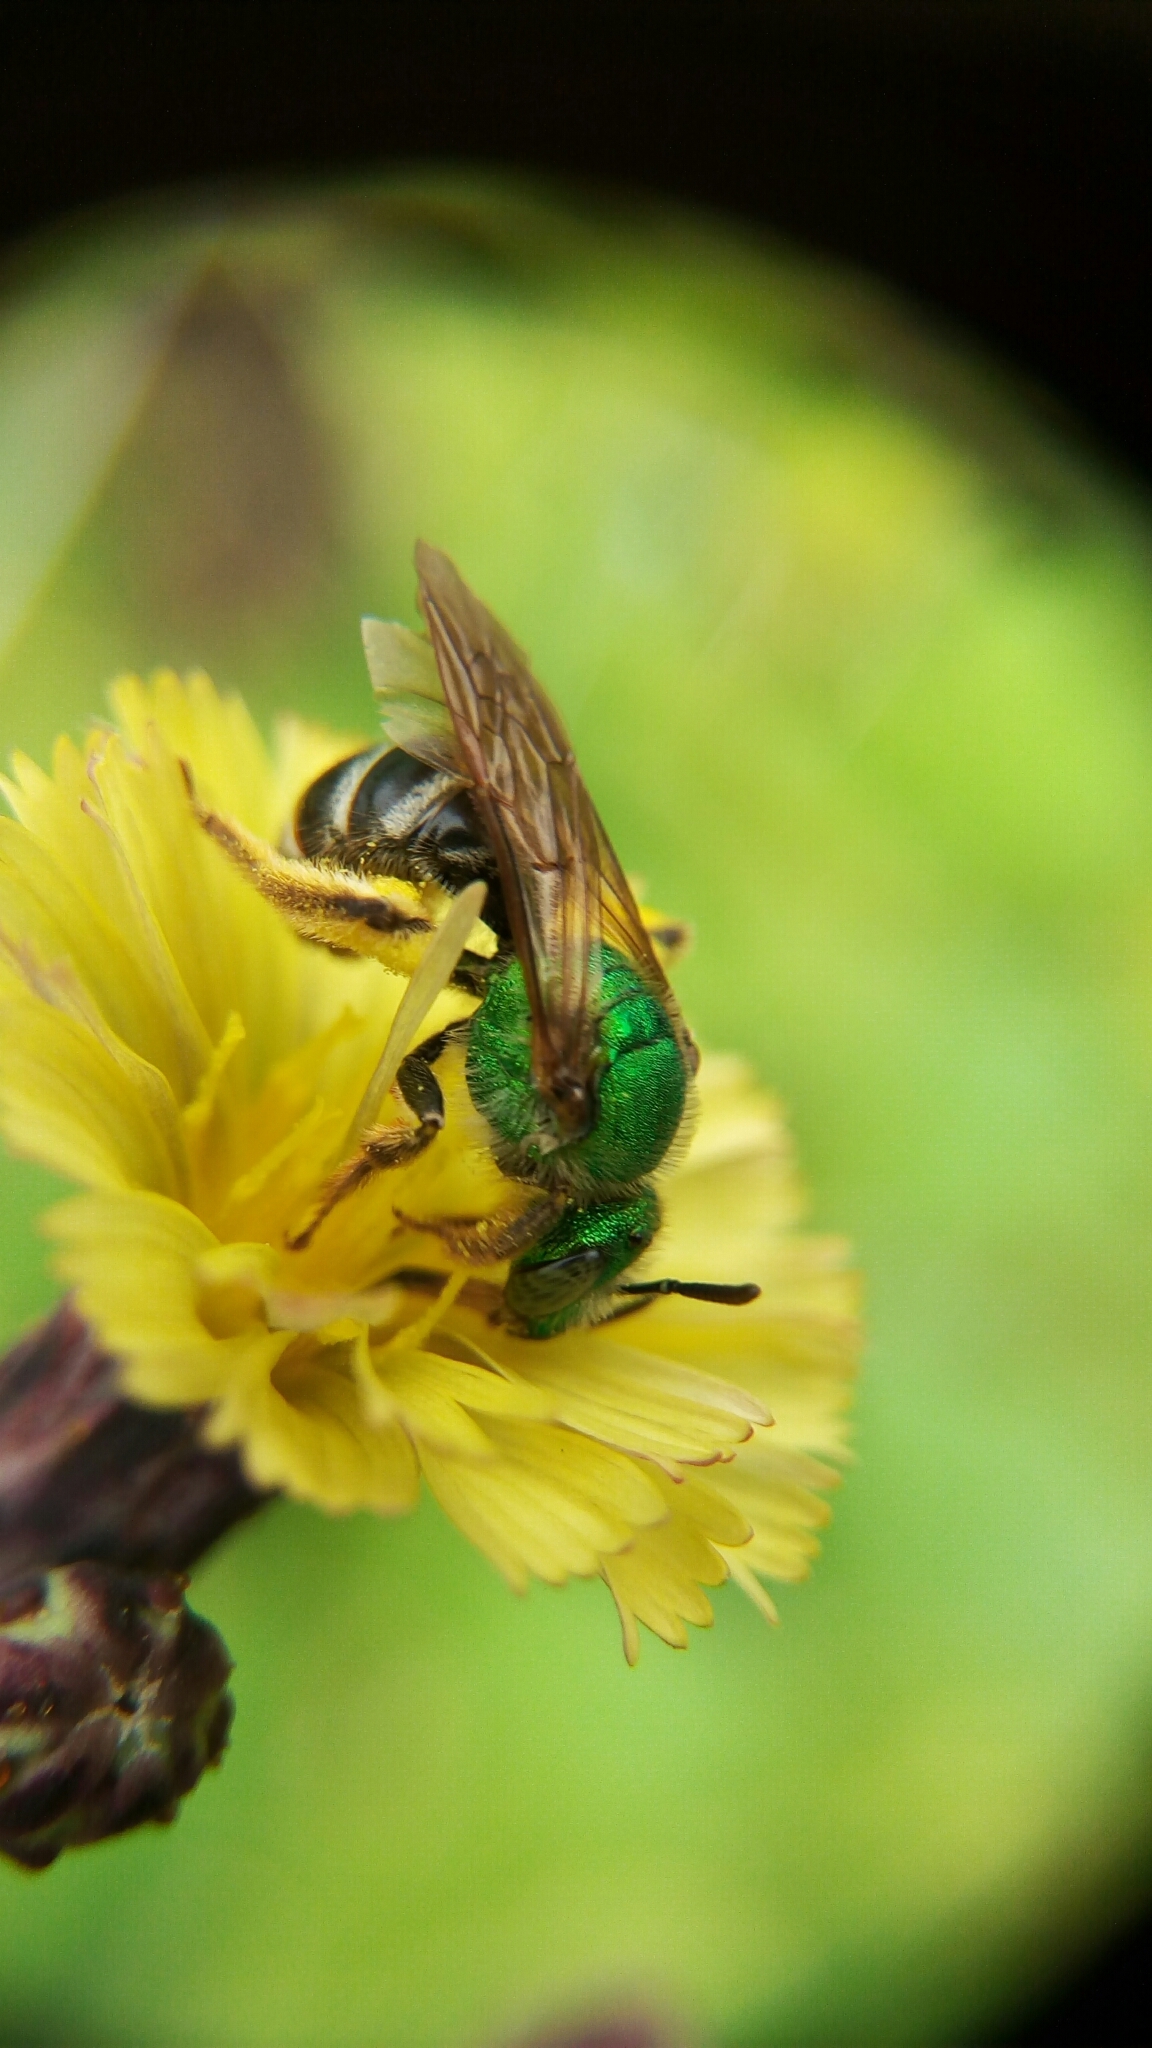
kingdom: Animalia
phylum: Arthropoda
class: Insecta
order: Hymenoptera
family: Halictidae
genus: Agapostemon
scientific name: Agapostemon virescens
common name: Bicolored striped sweat bee
